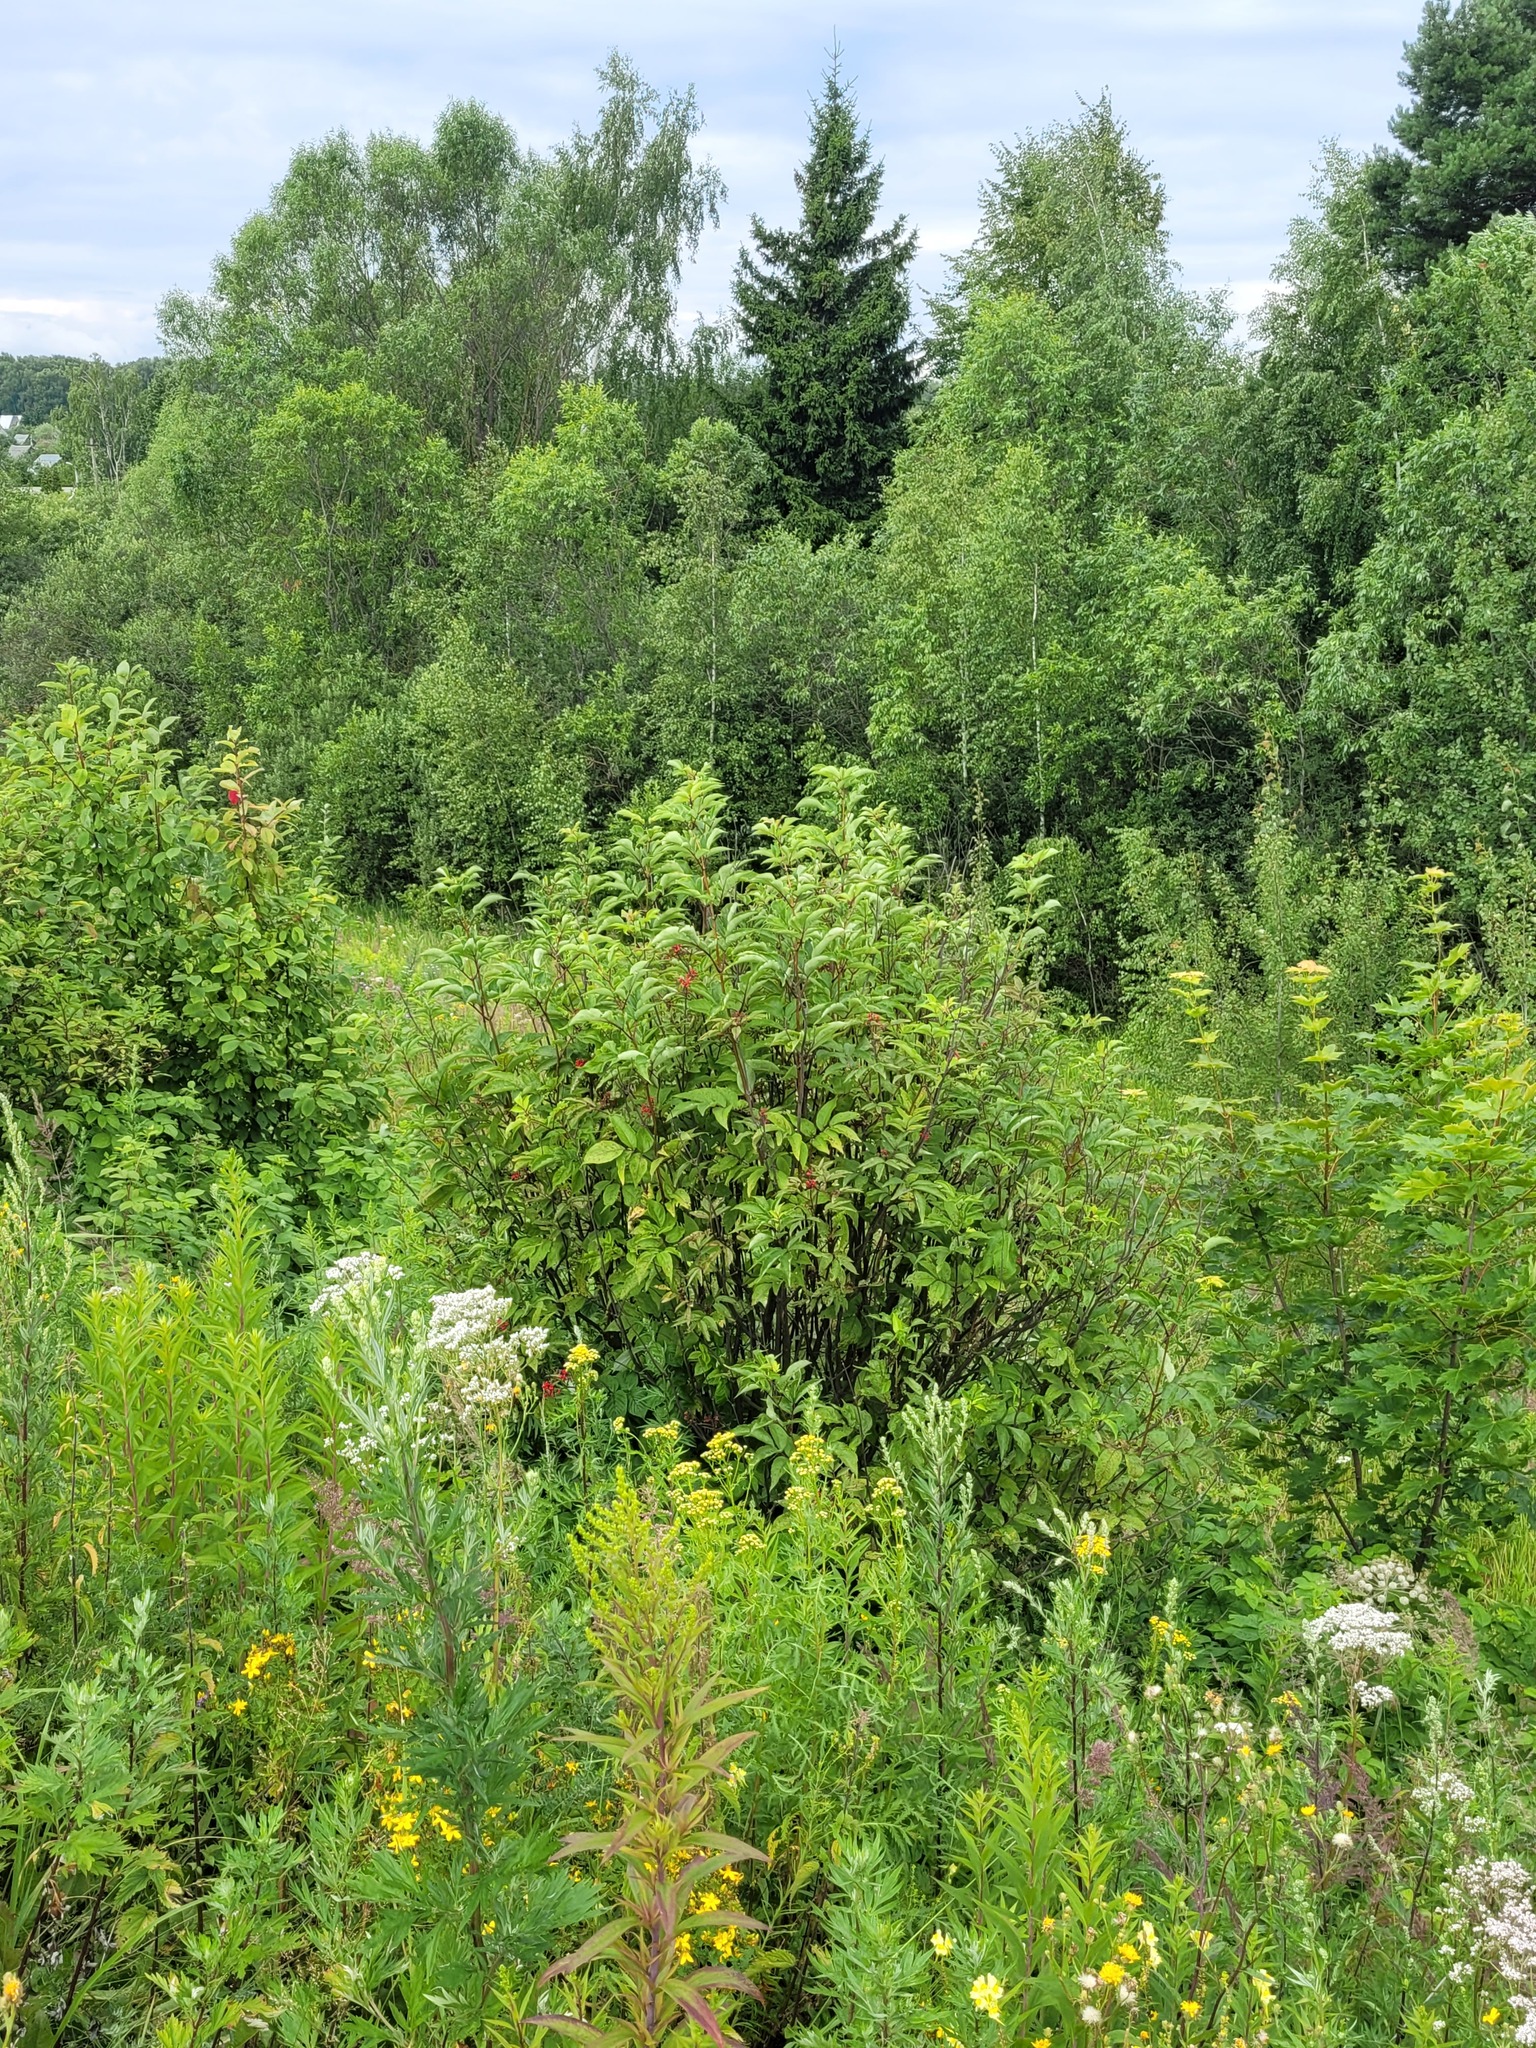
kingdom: Plantae
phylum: Tracheophyta
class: Magnoliopsida
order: Dipsacales
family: Viburnaceae
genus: Sambucus
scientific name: Sambucus racemosa
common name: Red-berried elder
